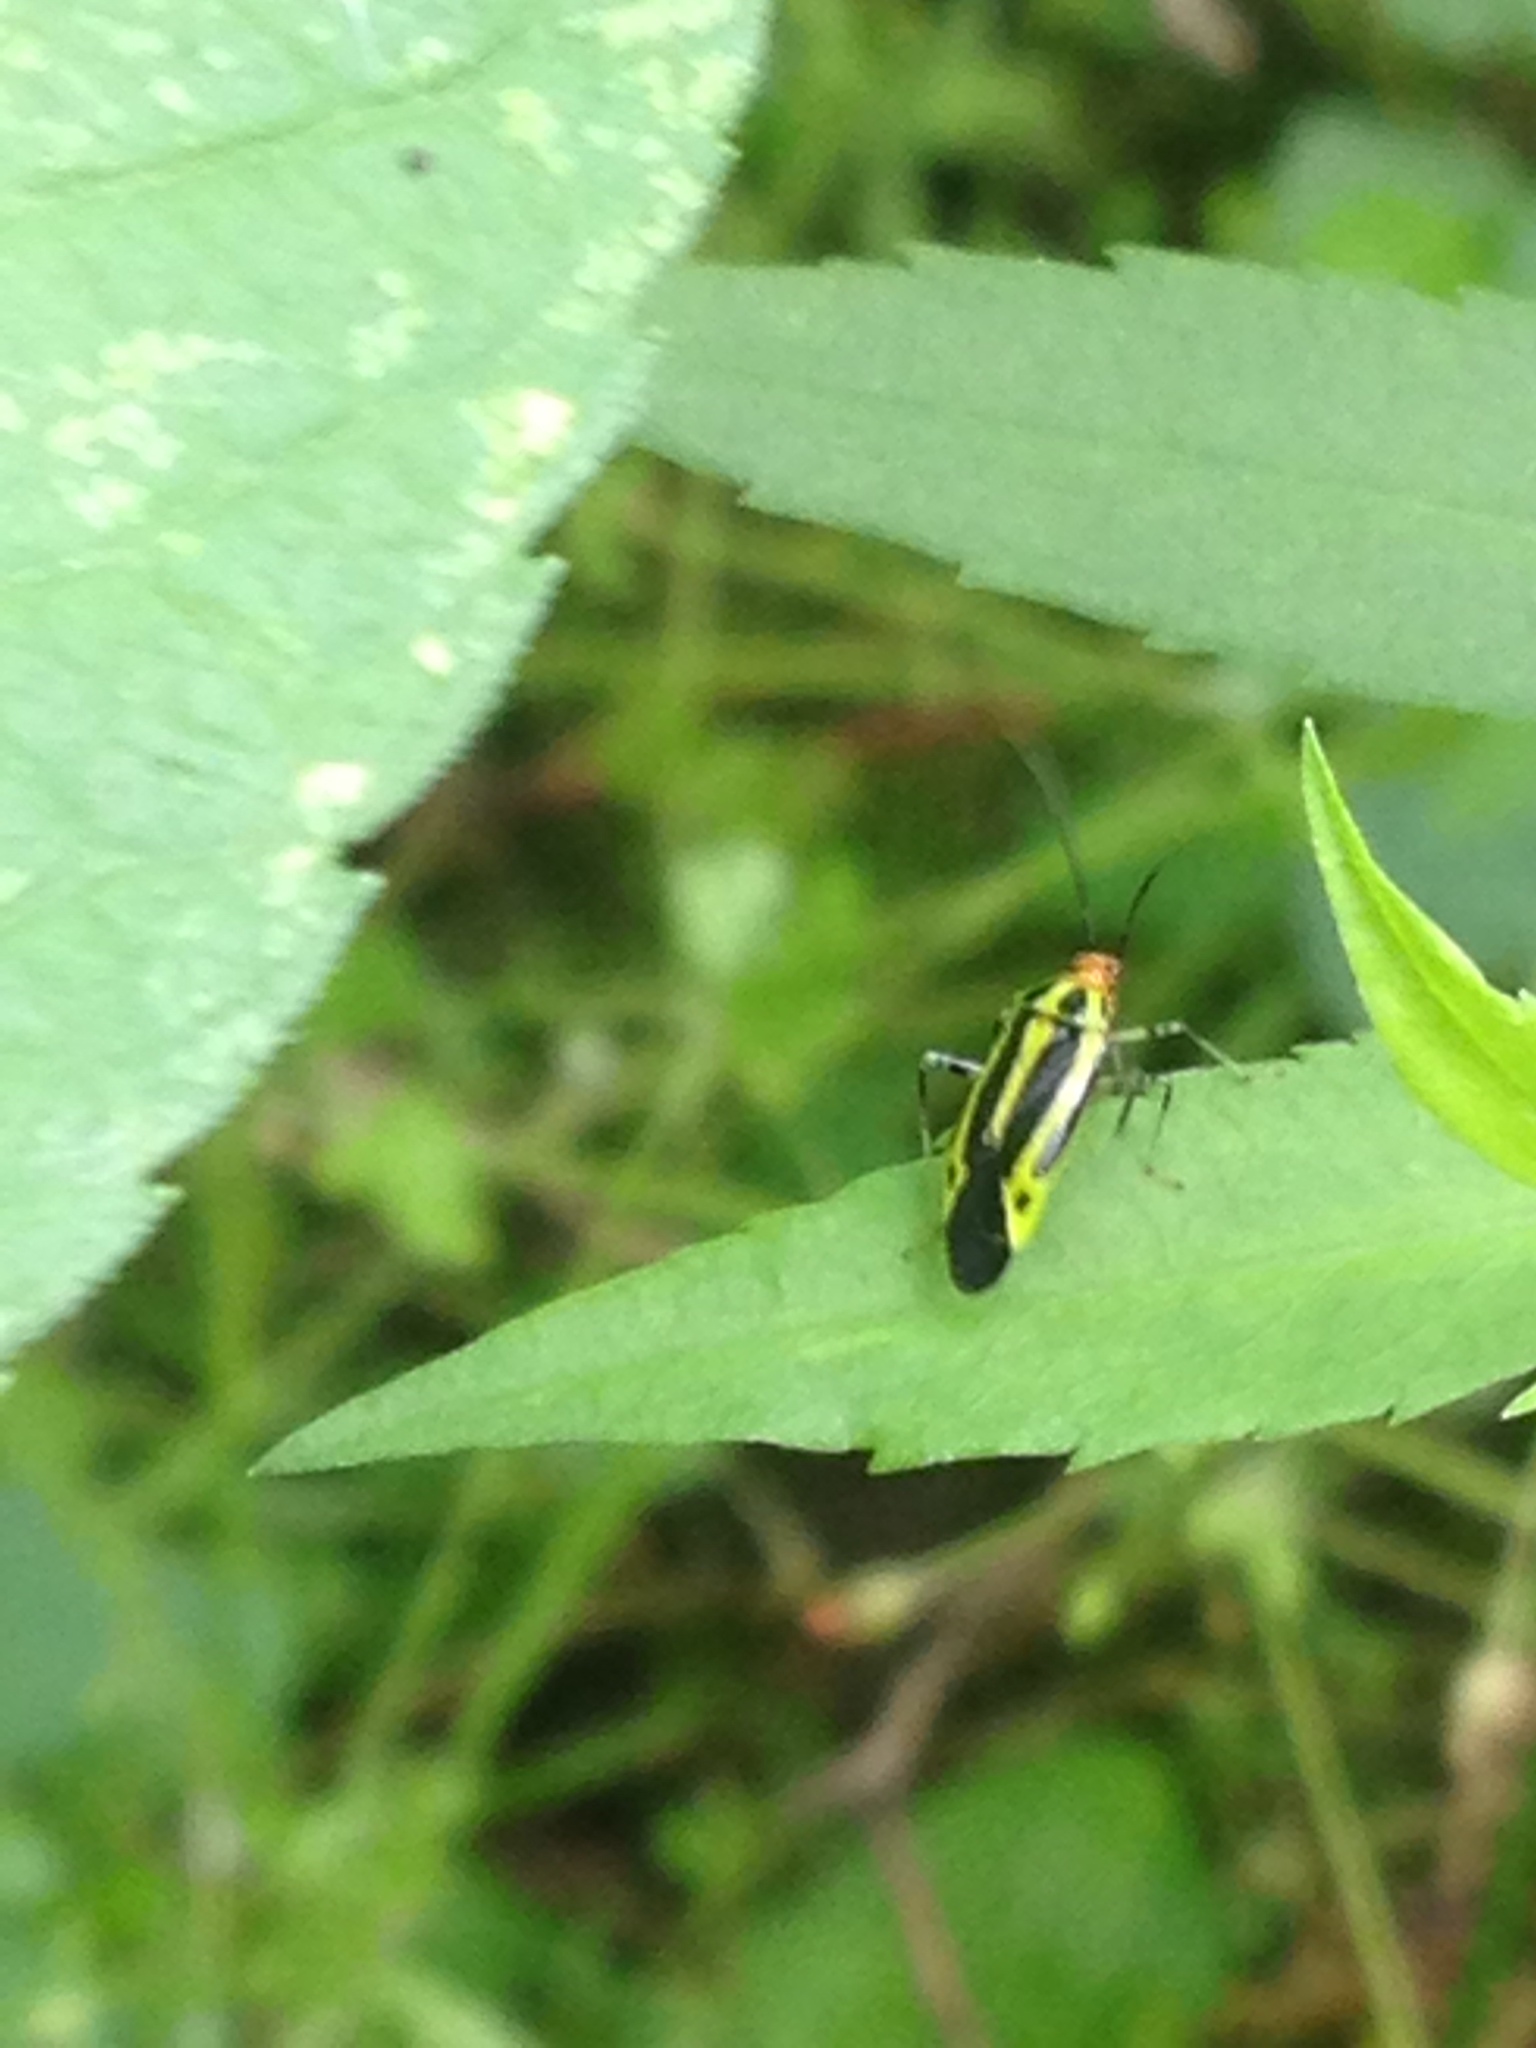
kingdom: Animalia
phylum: Arthropoda
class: Insecta
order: Hemiptera
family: Miridae
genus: Poecilocapsus
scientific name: Poecilocapsus lineatus
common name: Four-lined plant bug
